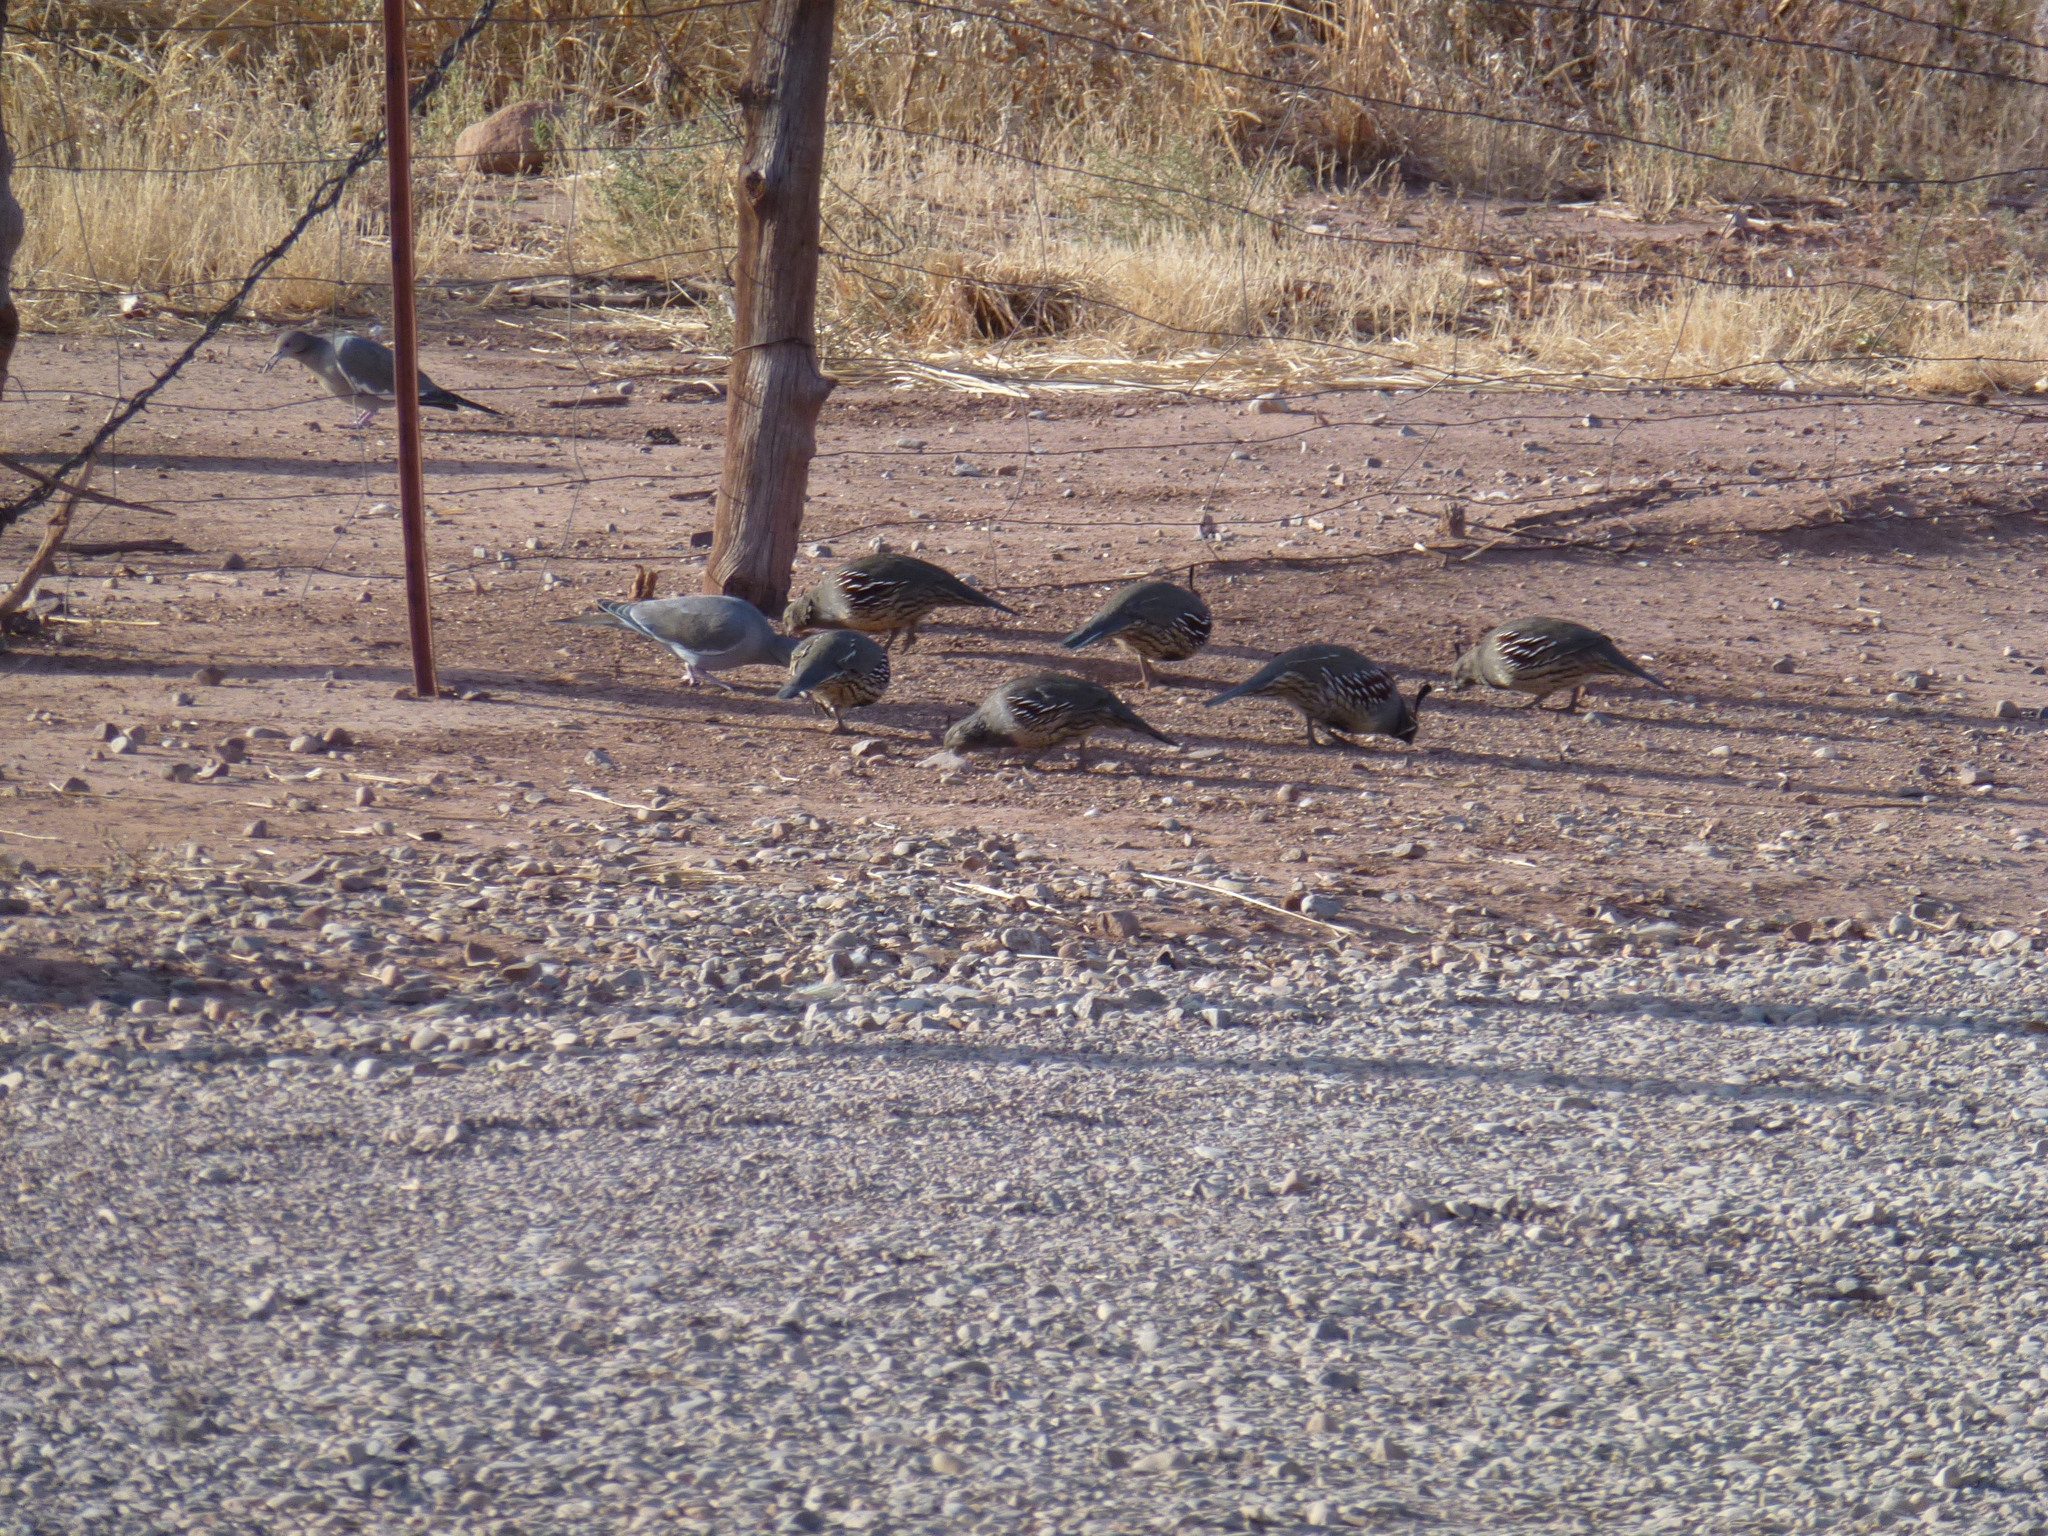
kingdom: Animalia
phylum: Chordata
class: Aves
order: Galliformes
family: Odontophoridae
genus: Callipepla
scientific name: Callipepla gambelii
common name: Gambel's quail
